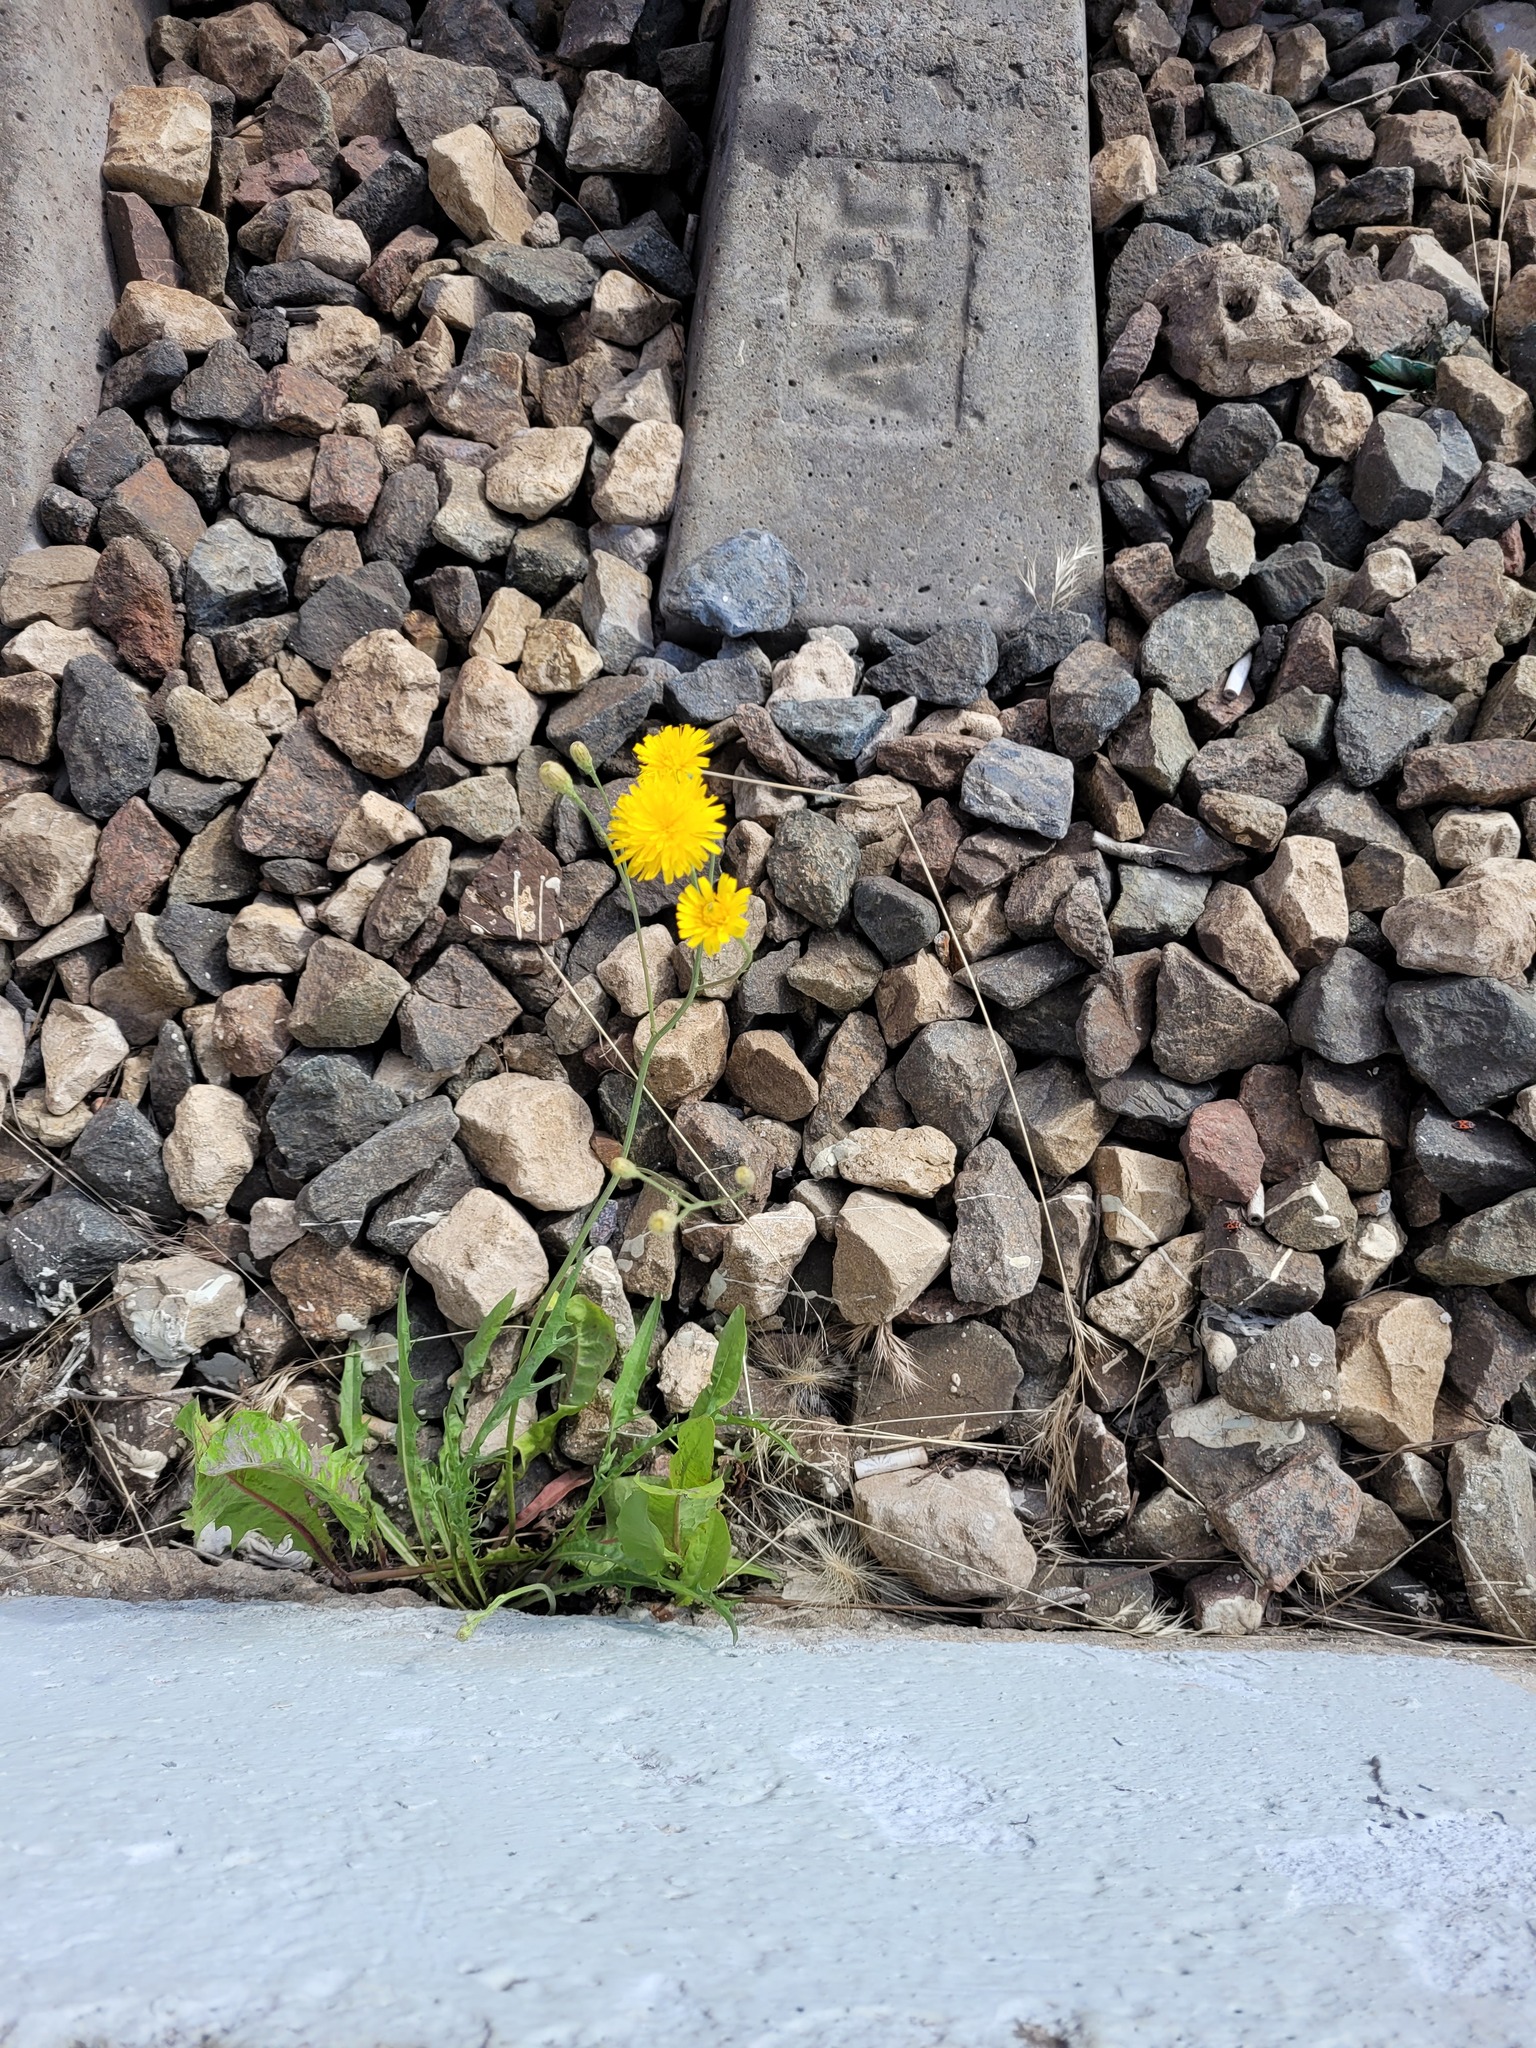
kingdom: Plantae
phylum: Tracheophyta
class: Magnoliopsida
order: Asterales
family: Asteraceae
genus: Scorzoneroides
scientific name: Scorzoneroides autumnalis
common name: Autumn hawkbit
